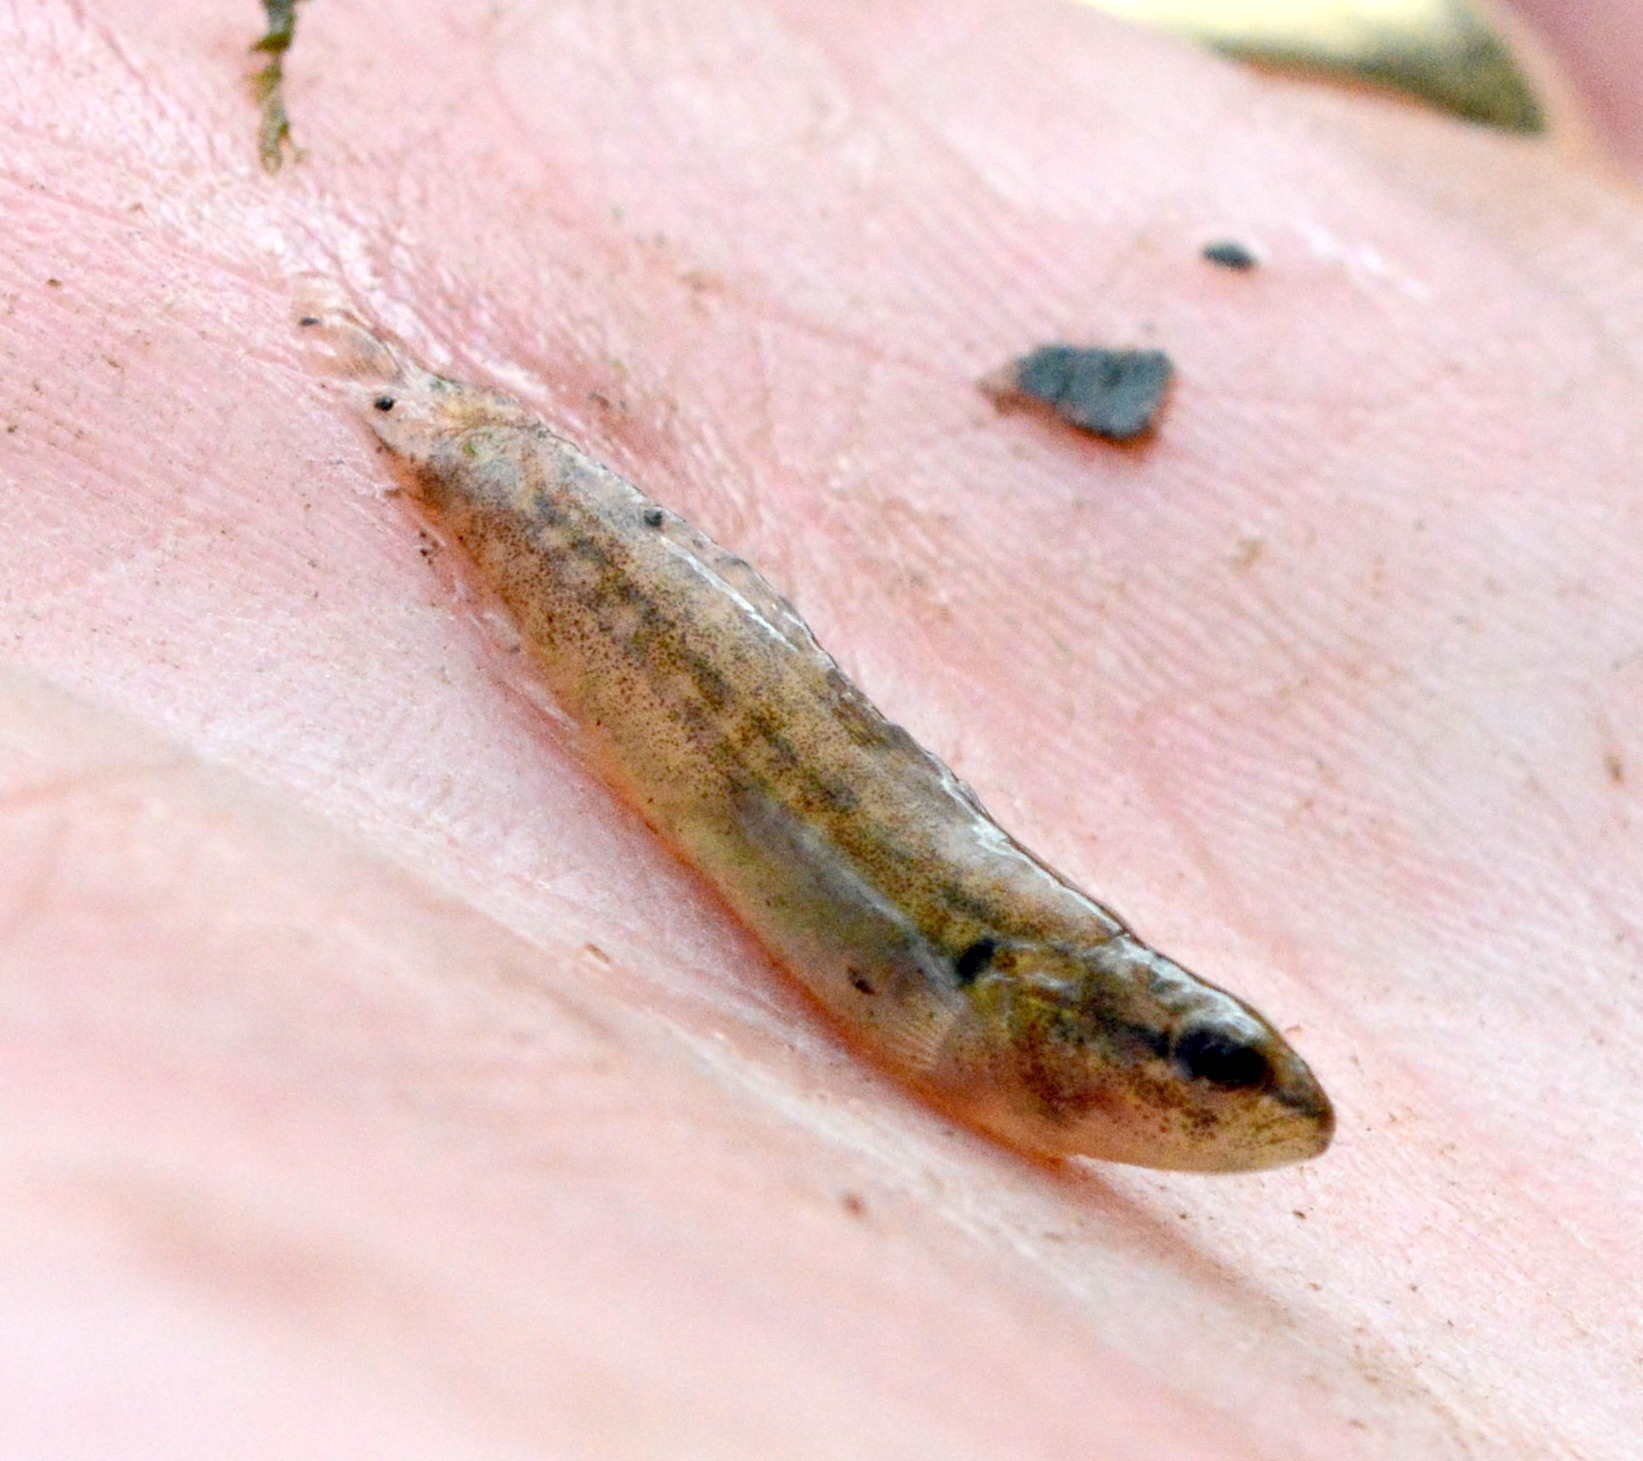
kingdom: Animalia
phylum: Chordata
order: Perciformes
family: Percidae
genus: Etheostoma
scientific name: Etheostoma flabellare
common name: Fantail darter
